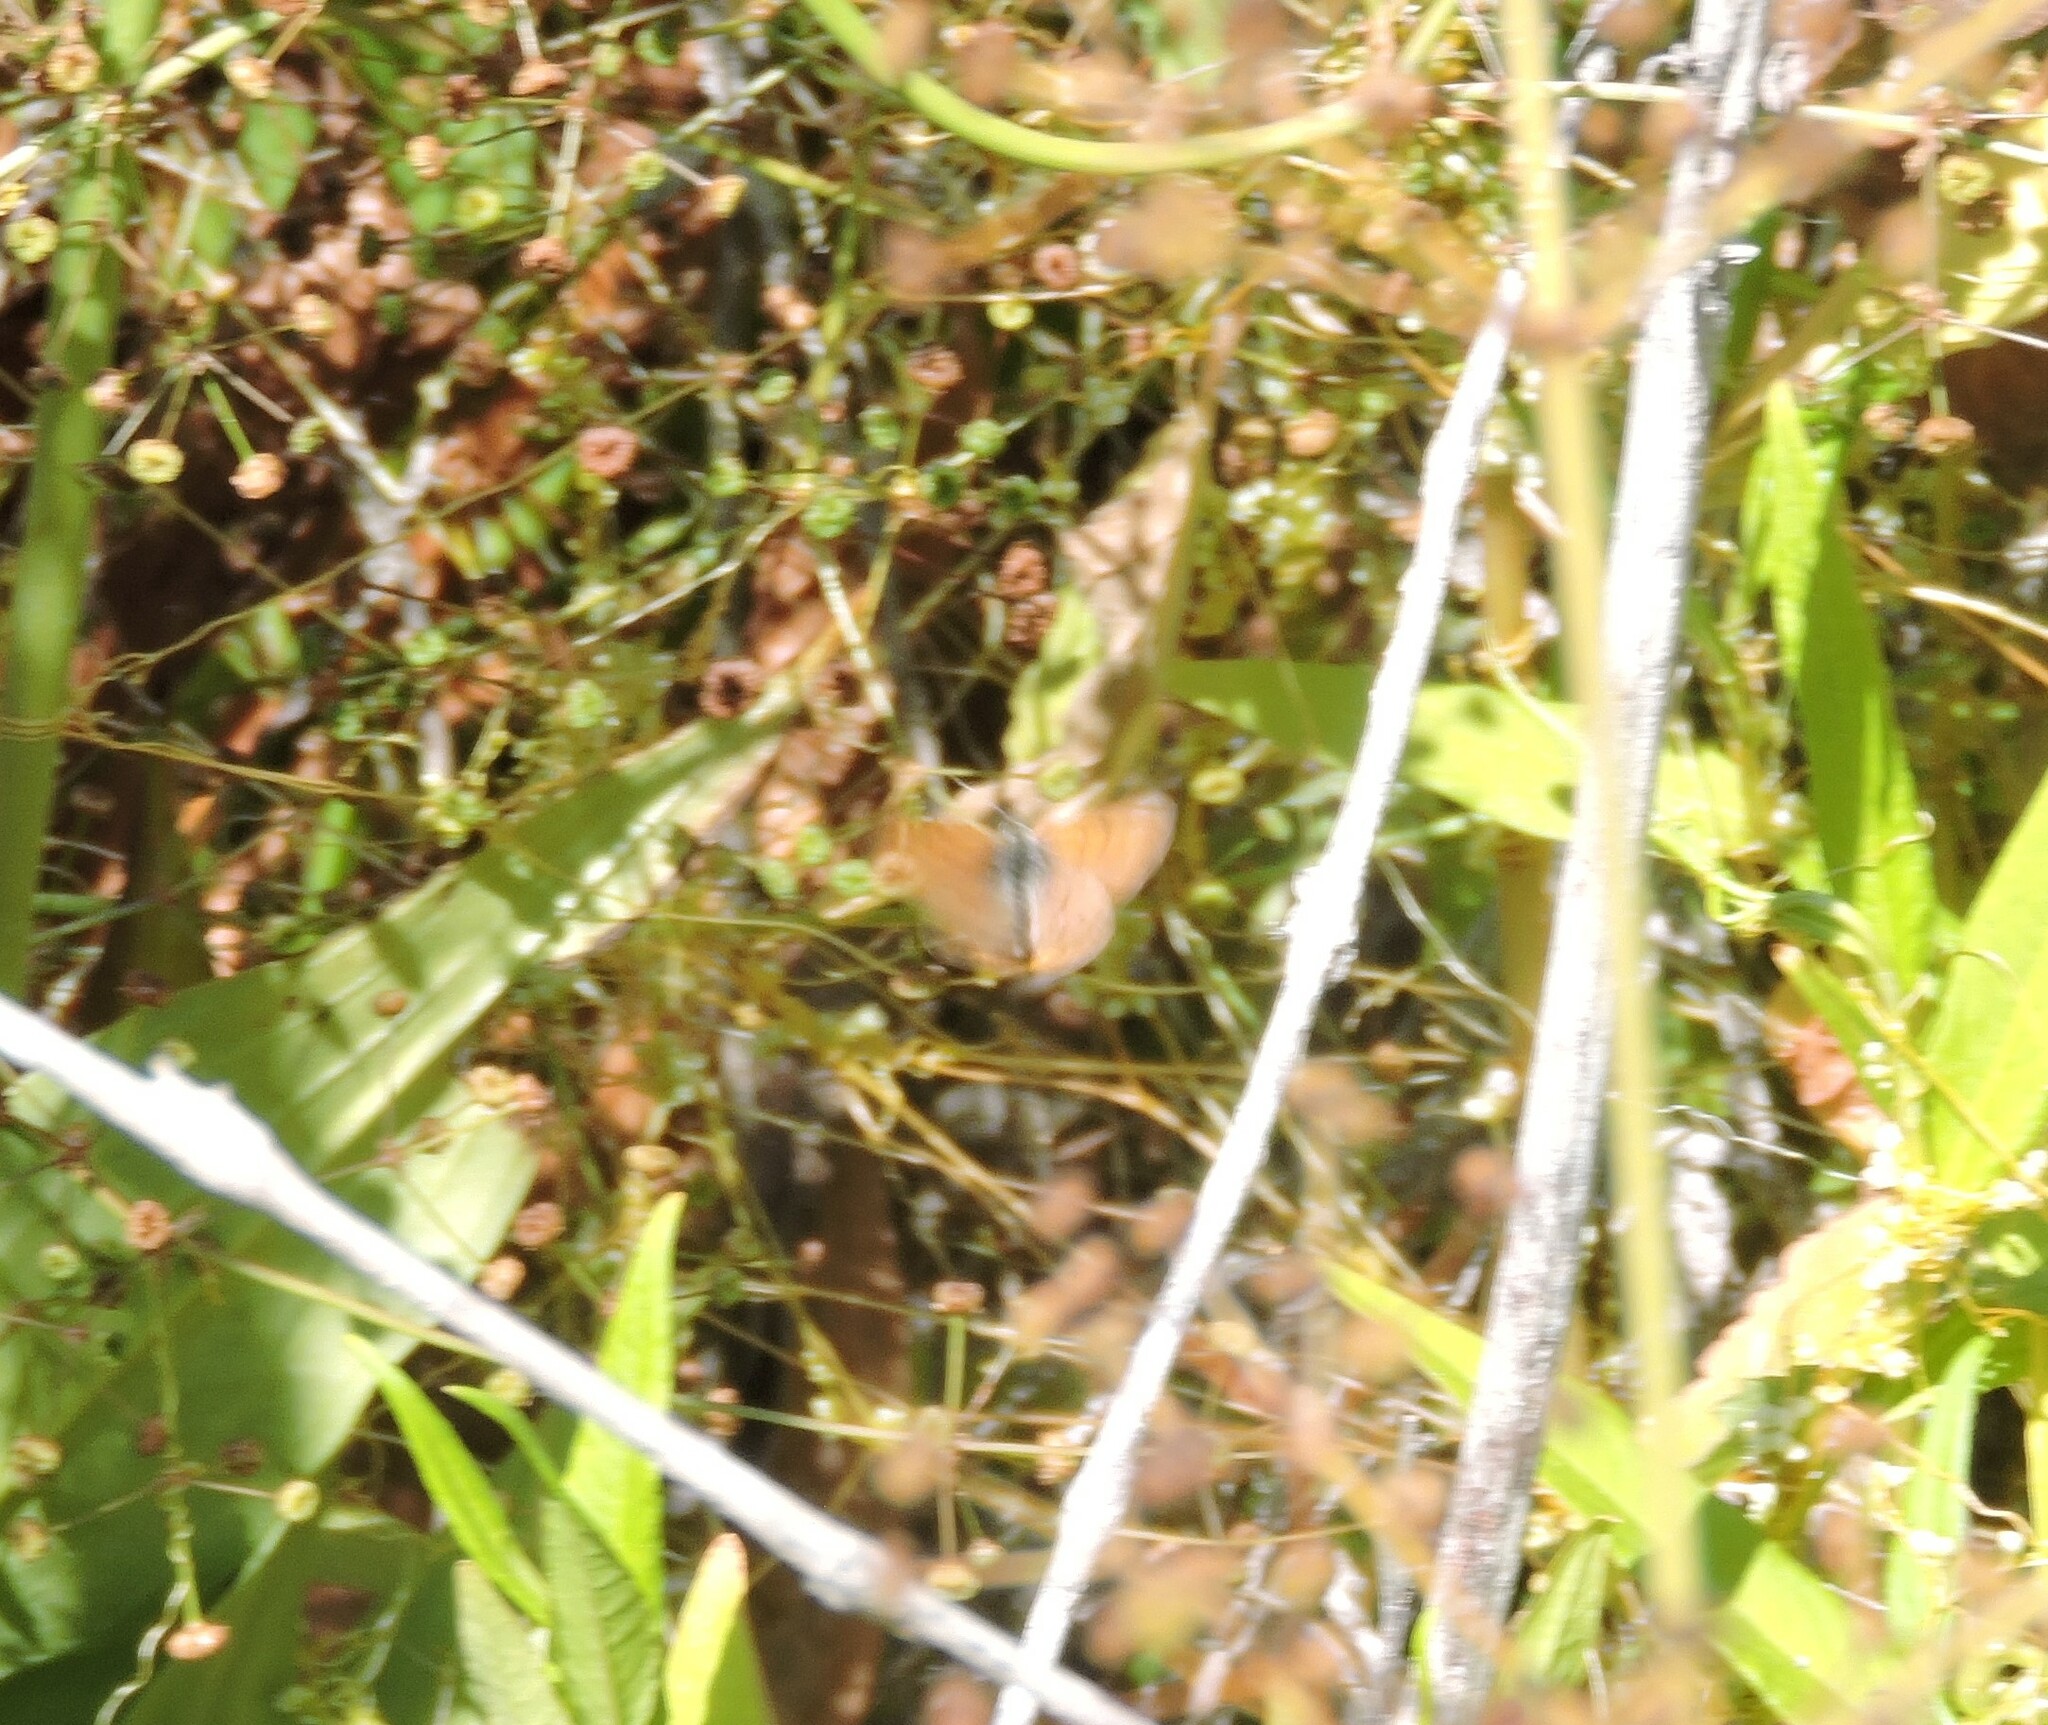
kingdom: Animalia
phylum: Arthropoda
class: Insecta
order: Lepidoptera
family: Lycaenidae
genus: Tharsalea
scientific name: Tharsalea helloides
